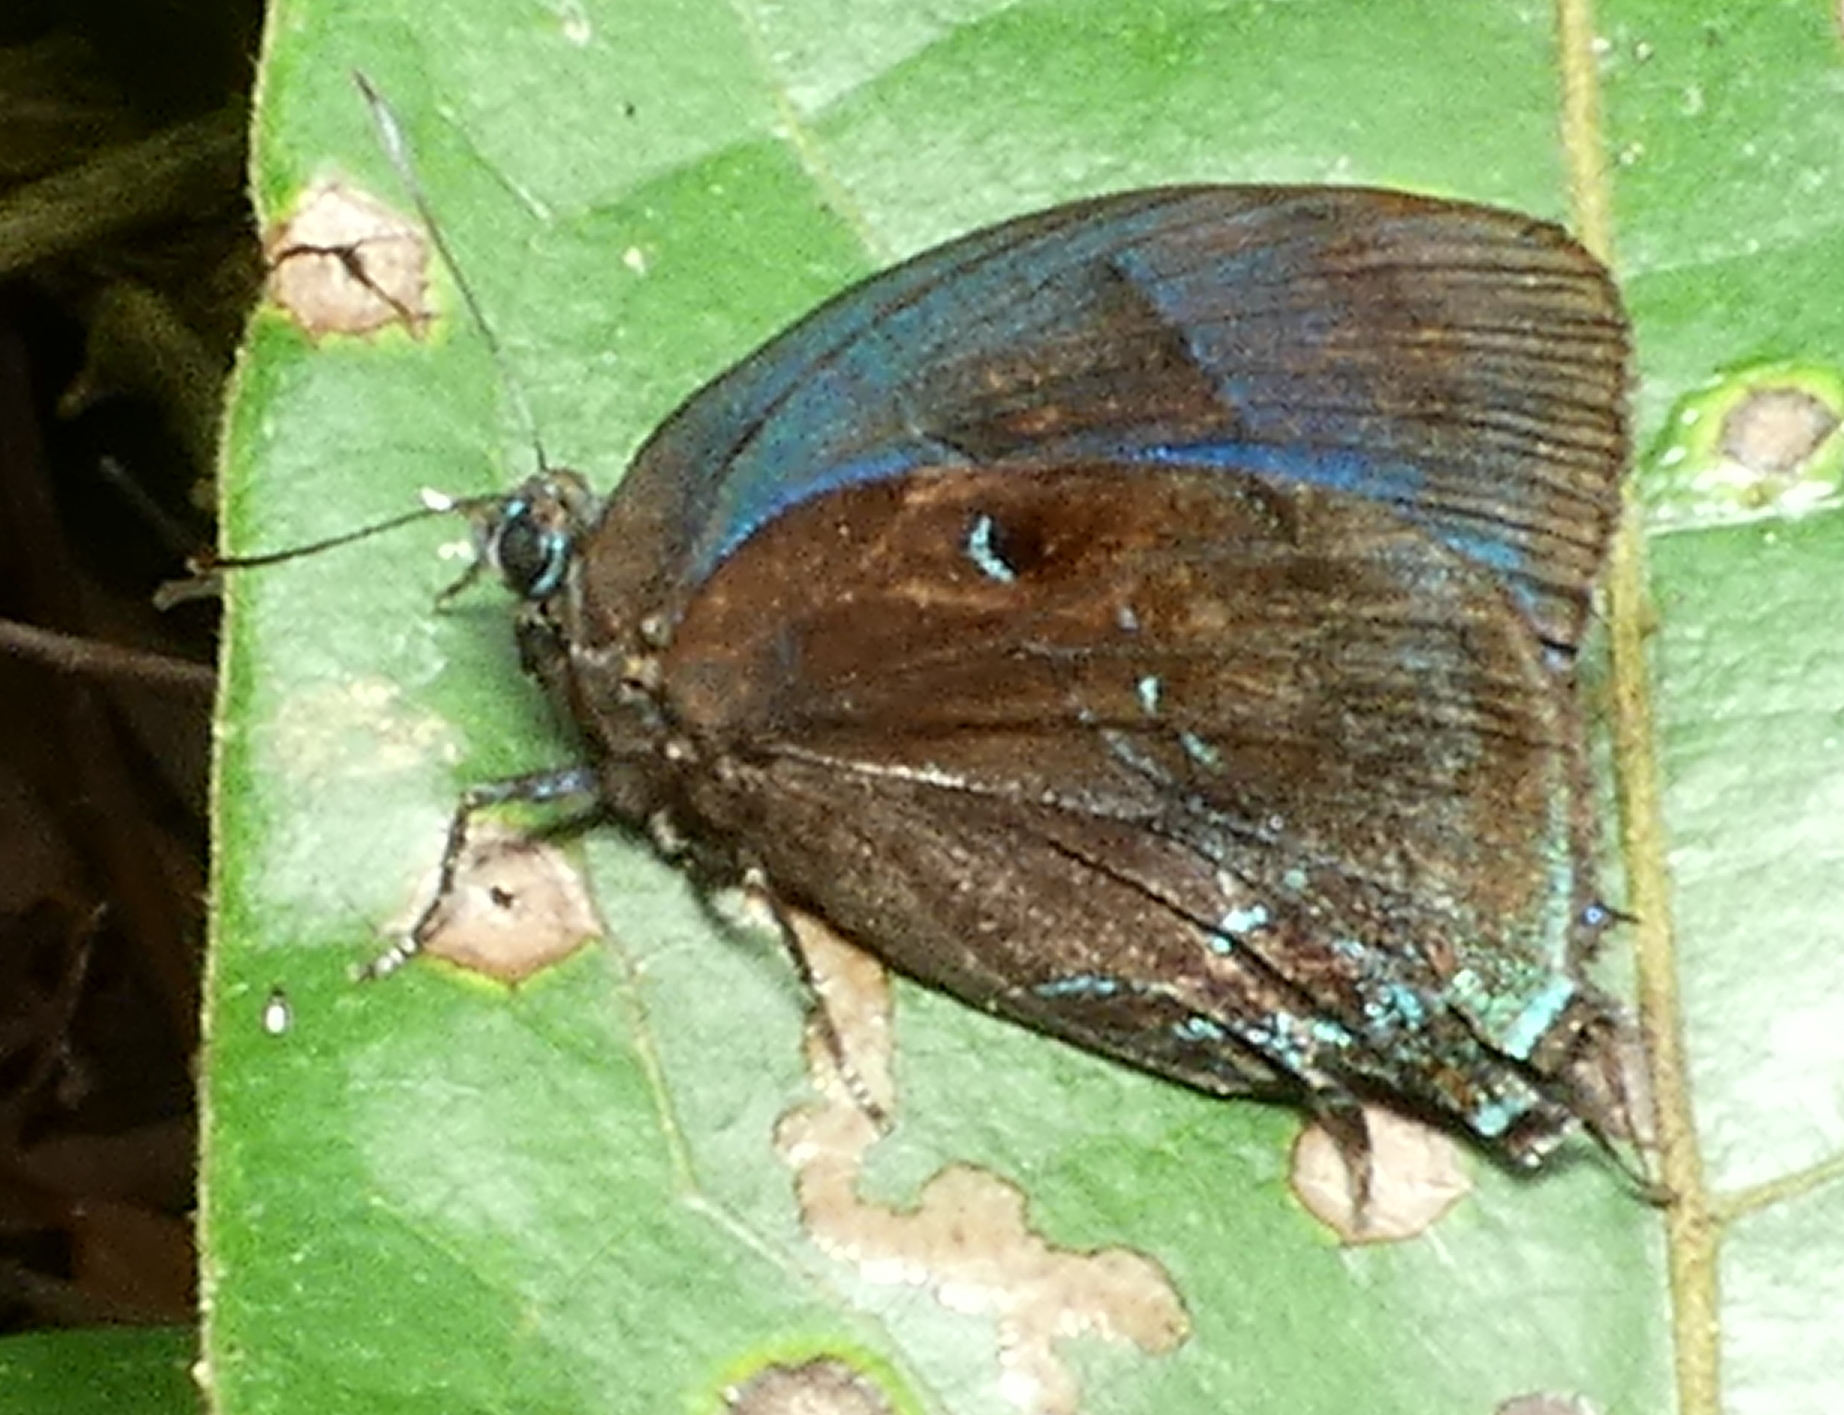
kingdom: Animalia
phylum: Arthropoda
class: Insecta
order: Lepidoptera
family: Lycaenidae
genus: Denivia
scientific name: Denivia hemon
